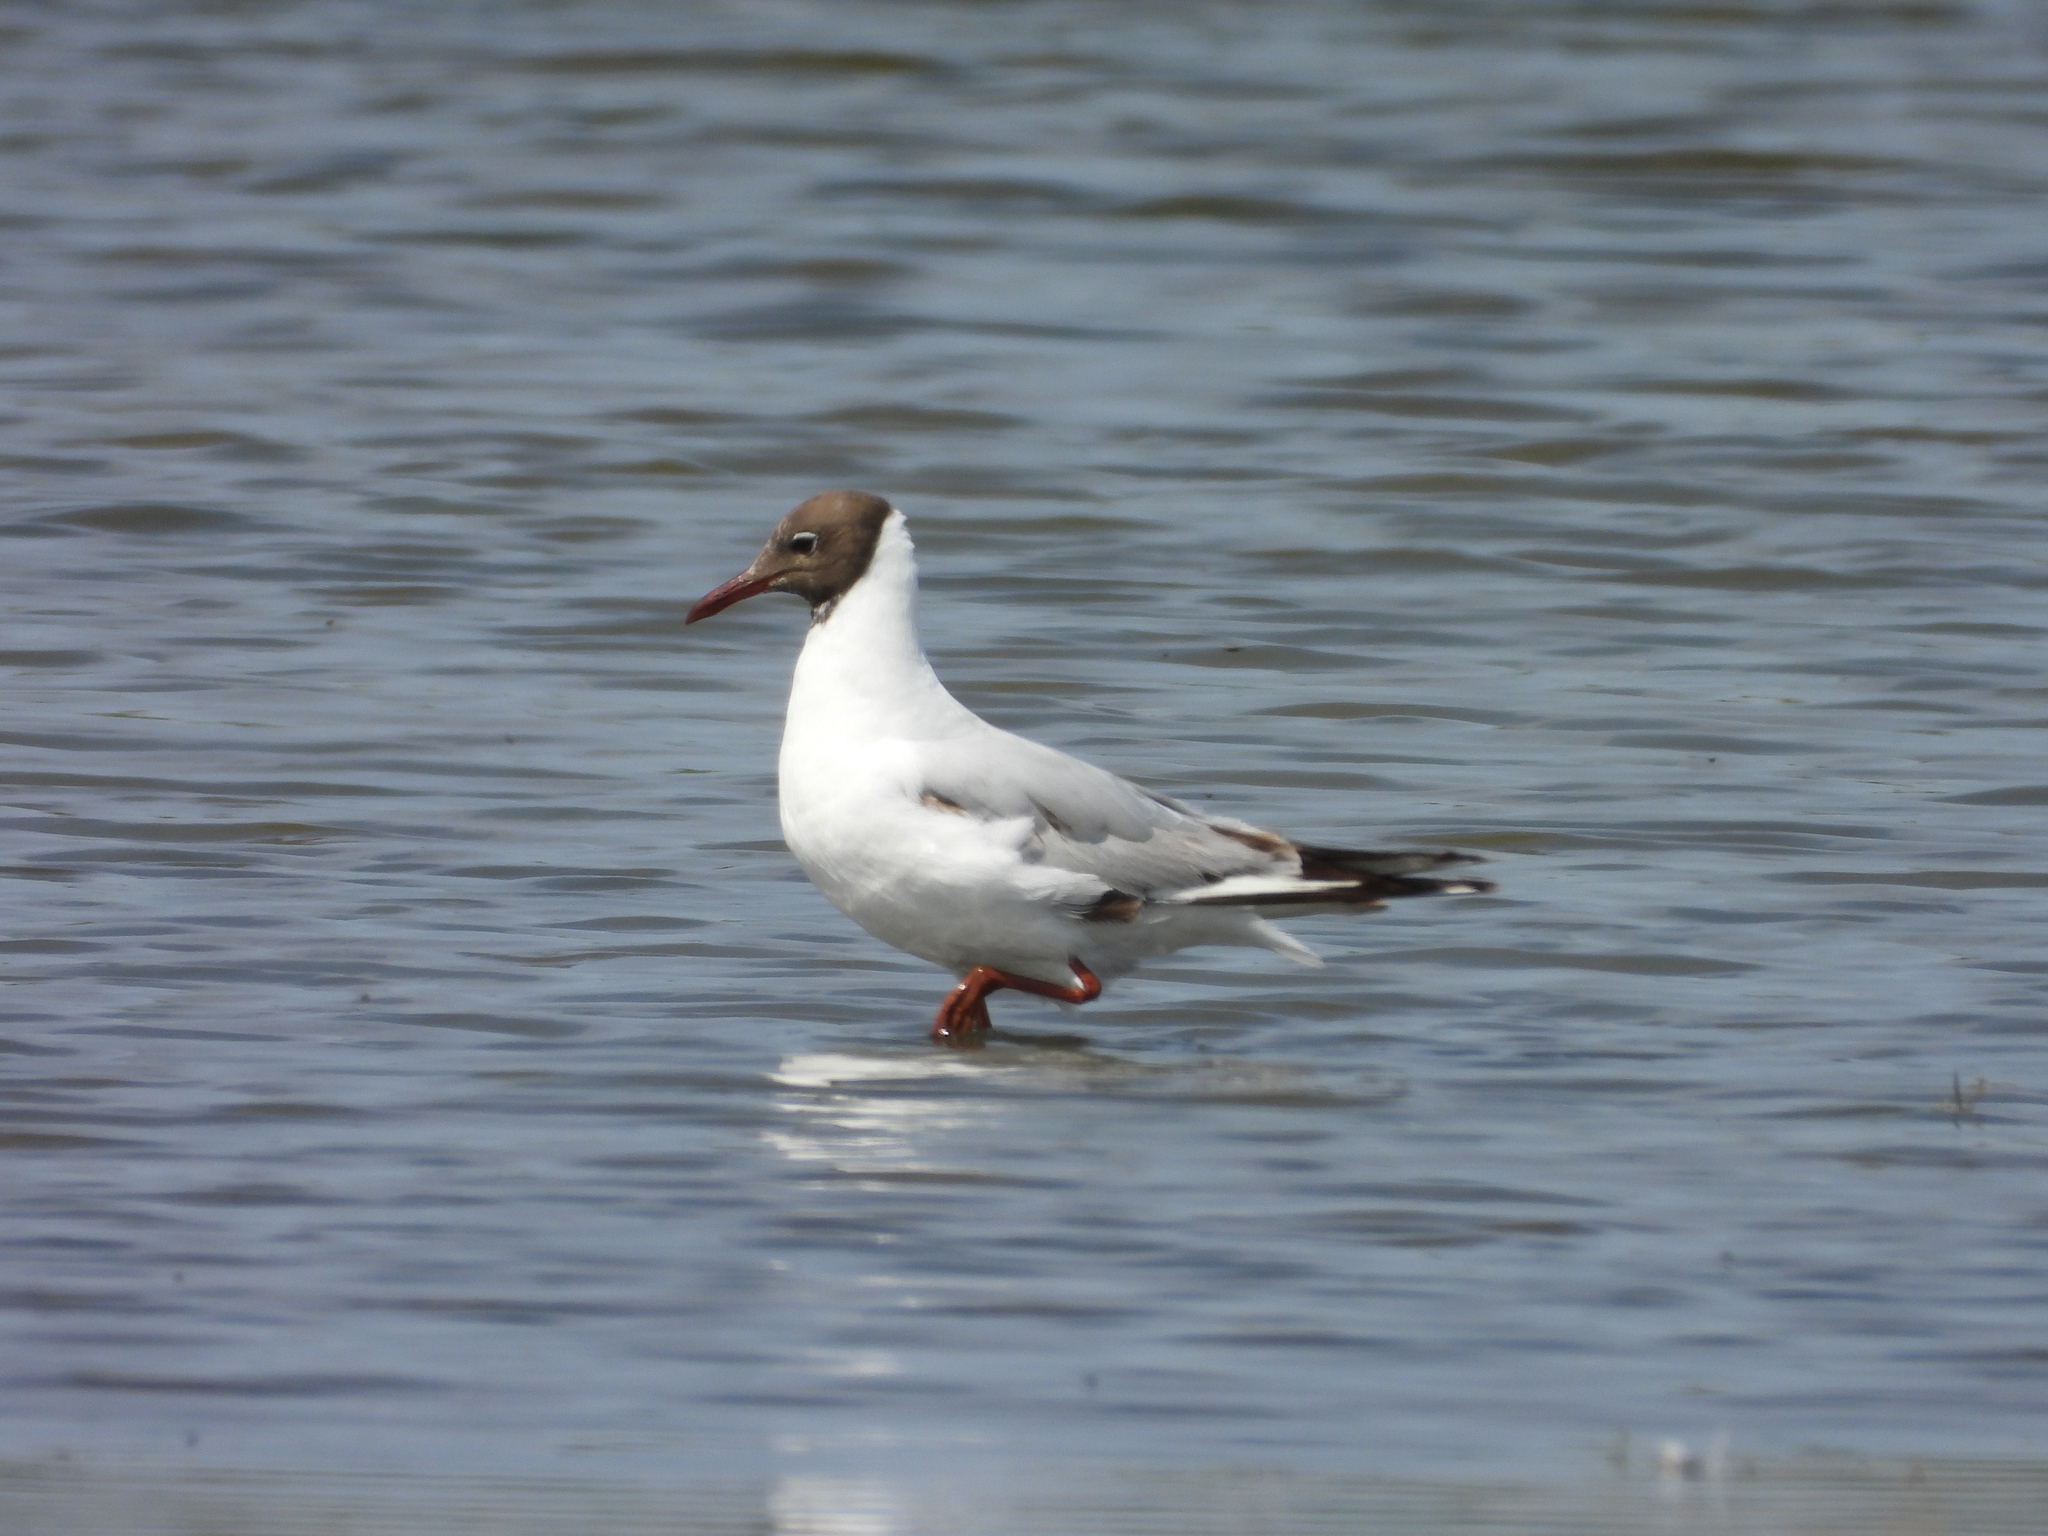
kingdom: Animalia
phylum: Chordata
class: Aves
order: Charadriiformes
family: Laridae
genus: Chroicocephalus
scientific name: Chroicocephalus ridibundus
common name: Black-headed gull
